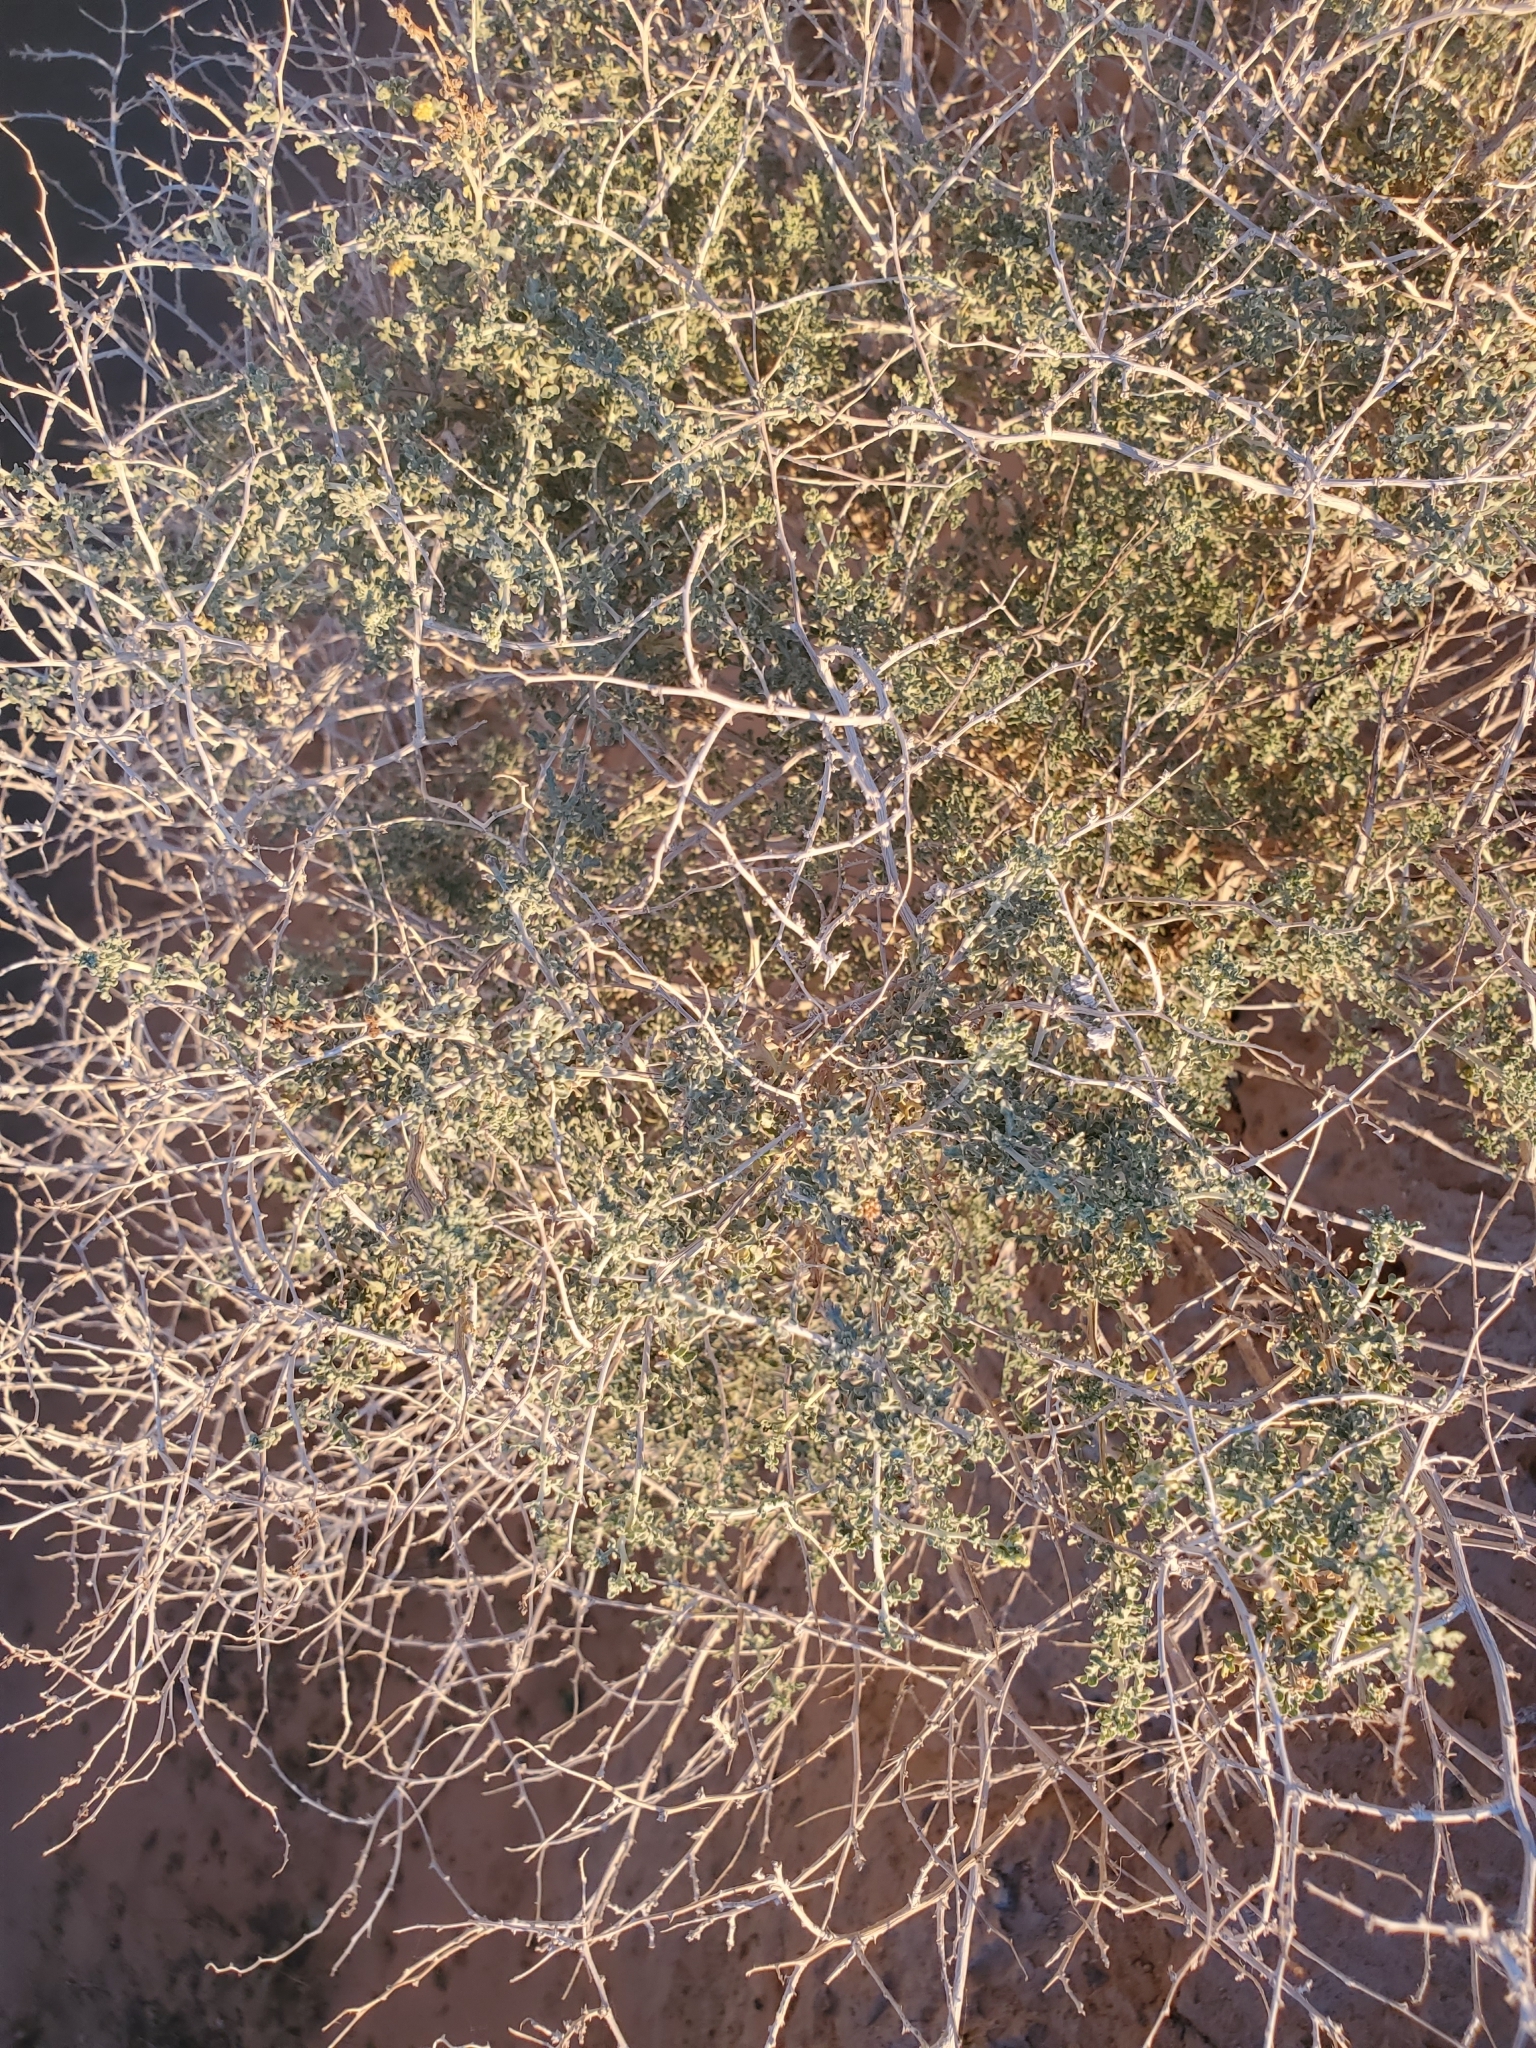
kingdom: Plantae
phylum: Tracheophyta
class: Magnoliopsida
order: Asterales
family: Asteraceae
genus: Ambrosia
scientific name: Ambrosia dumosa
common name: Bur-sage
